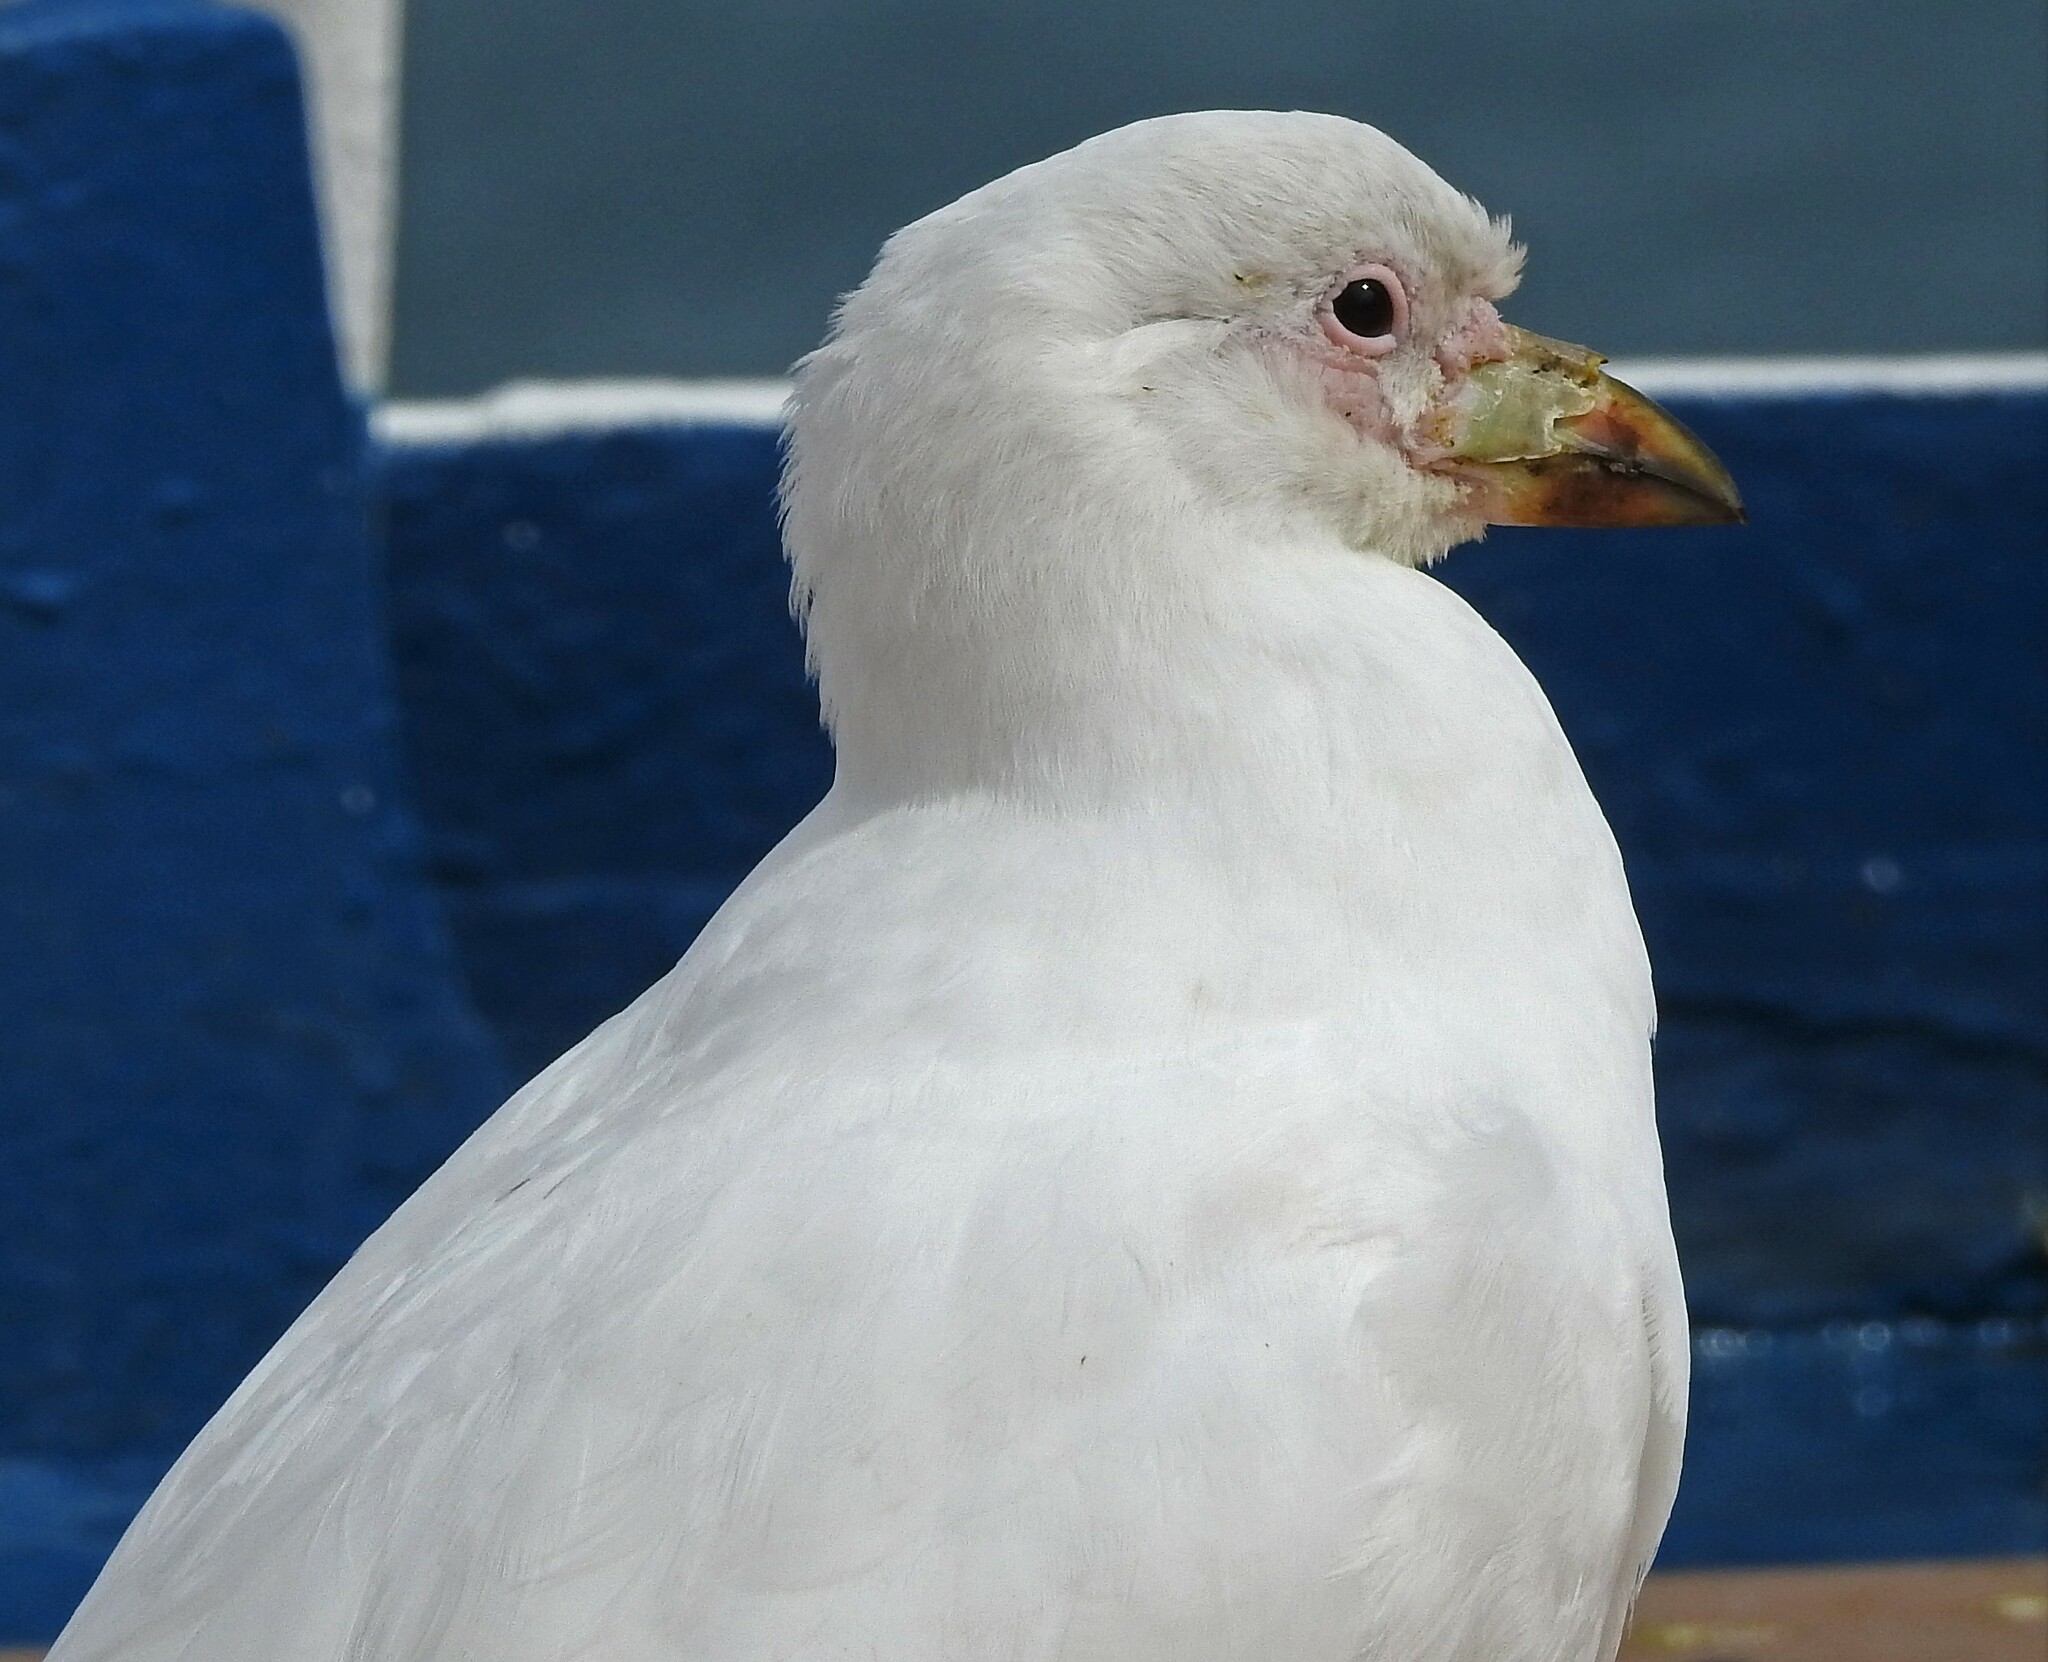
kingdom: Animalia
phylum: Chordata
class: Aves
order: Charadriiformes
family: Chionidae
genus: Chionis
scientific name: Chionis albus
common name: Snowy sheathbill
